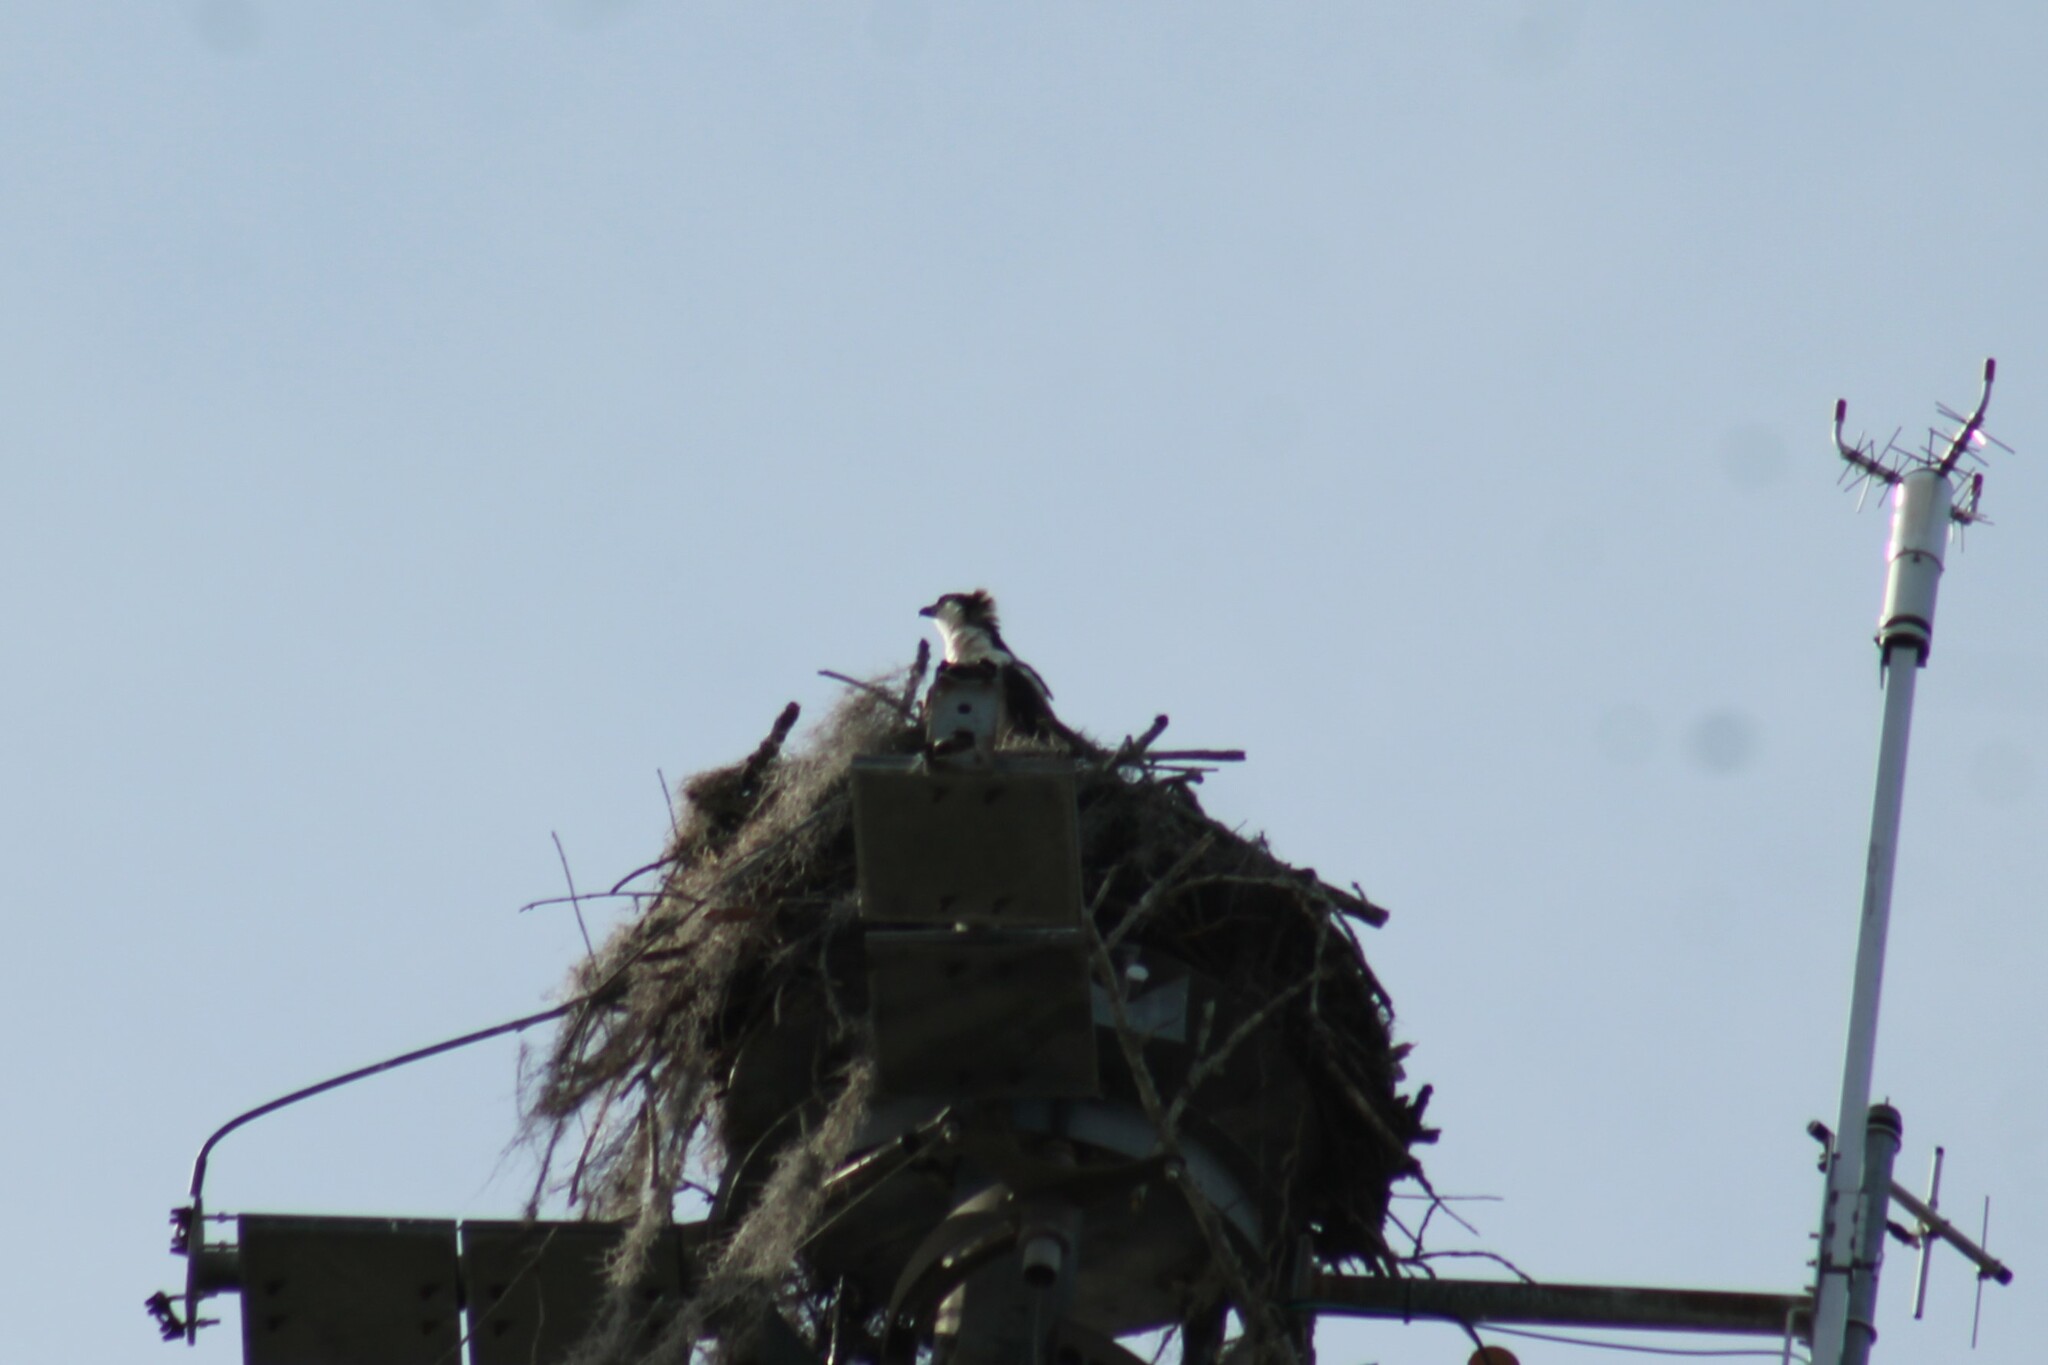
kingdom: Animalia
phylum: Chordata
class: Aves
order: Accipitriformes
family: Pandionidae
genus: Pandion
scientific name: Pandion haliaetus
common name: Osprey
